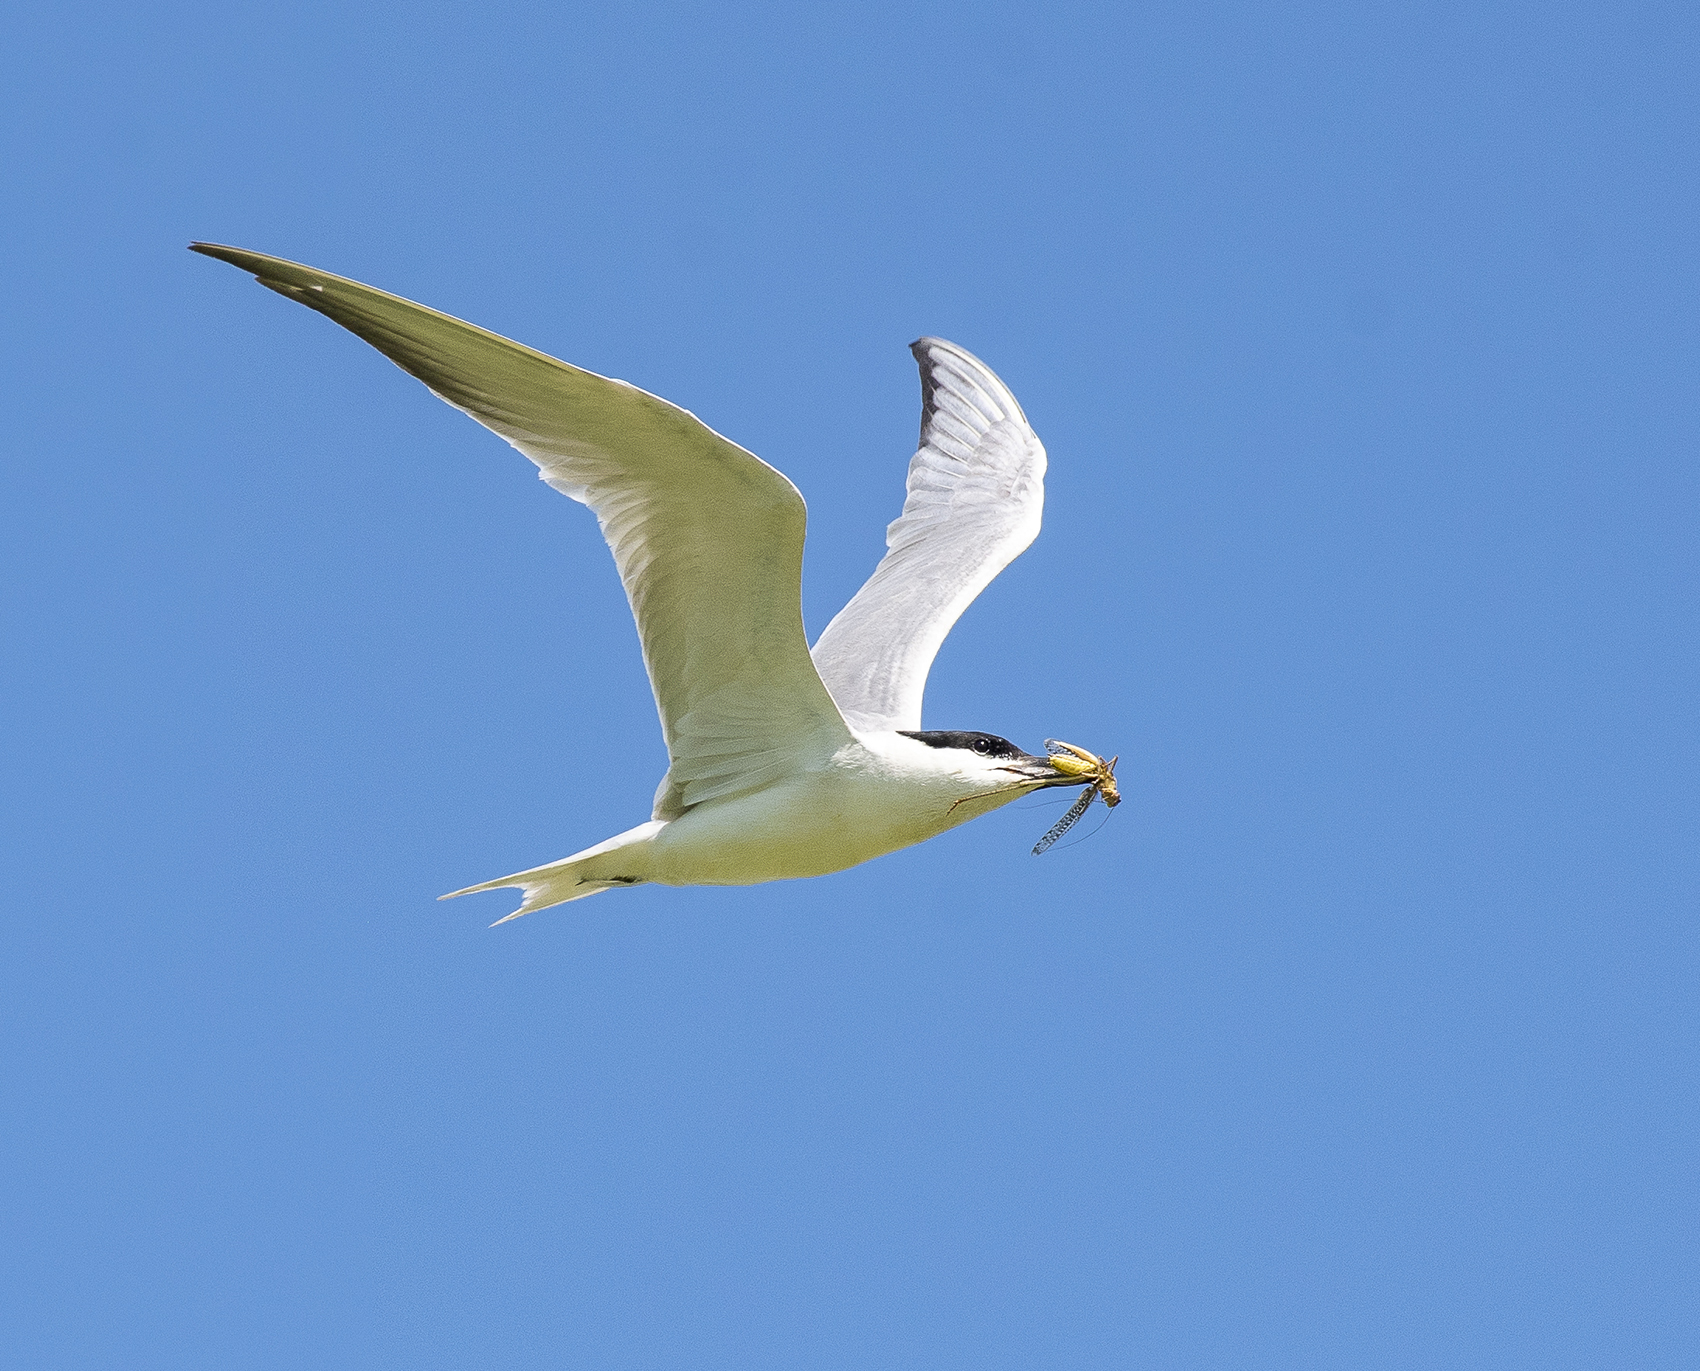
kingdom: Animalia
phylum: Chordata
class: Aves
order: Charadriiformes
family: Laridae
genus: Gelochelidon
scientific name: Gelochelidon nilotica
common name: Gull-billed tern
